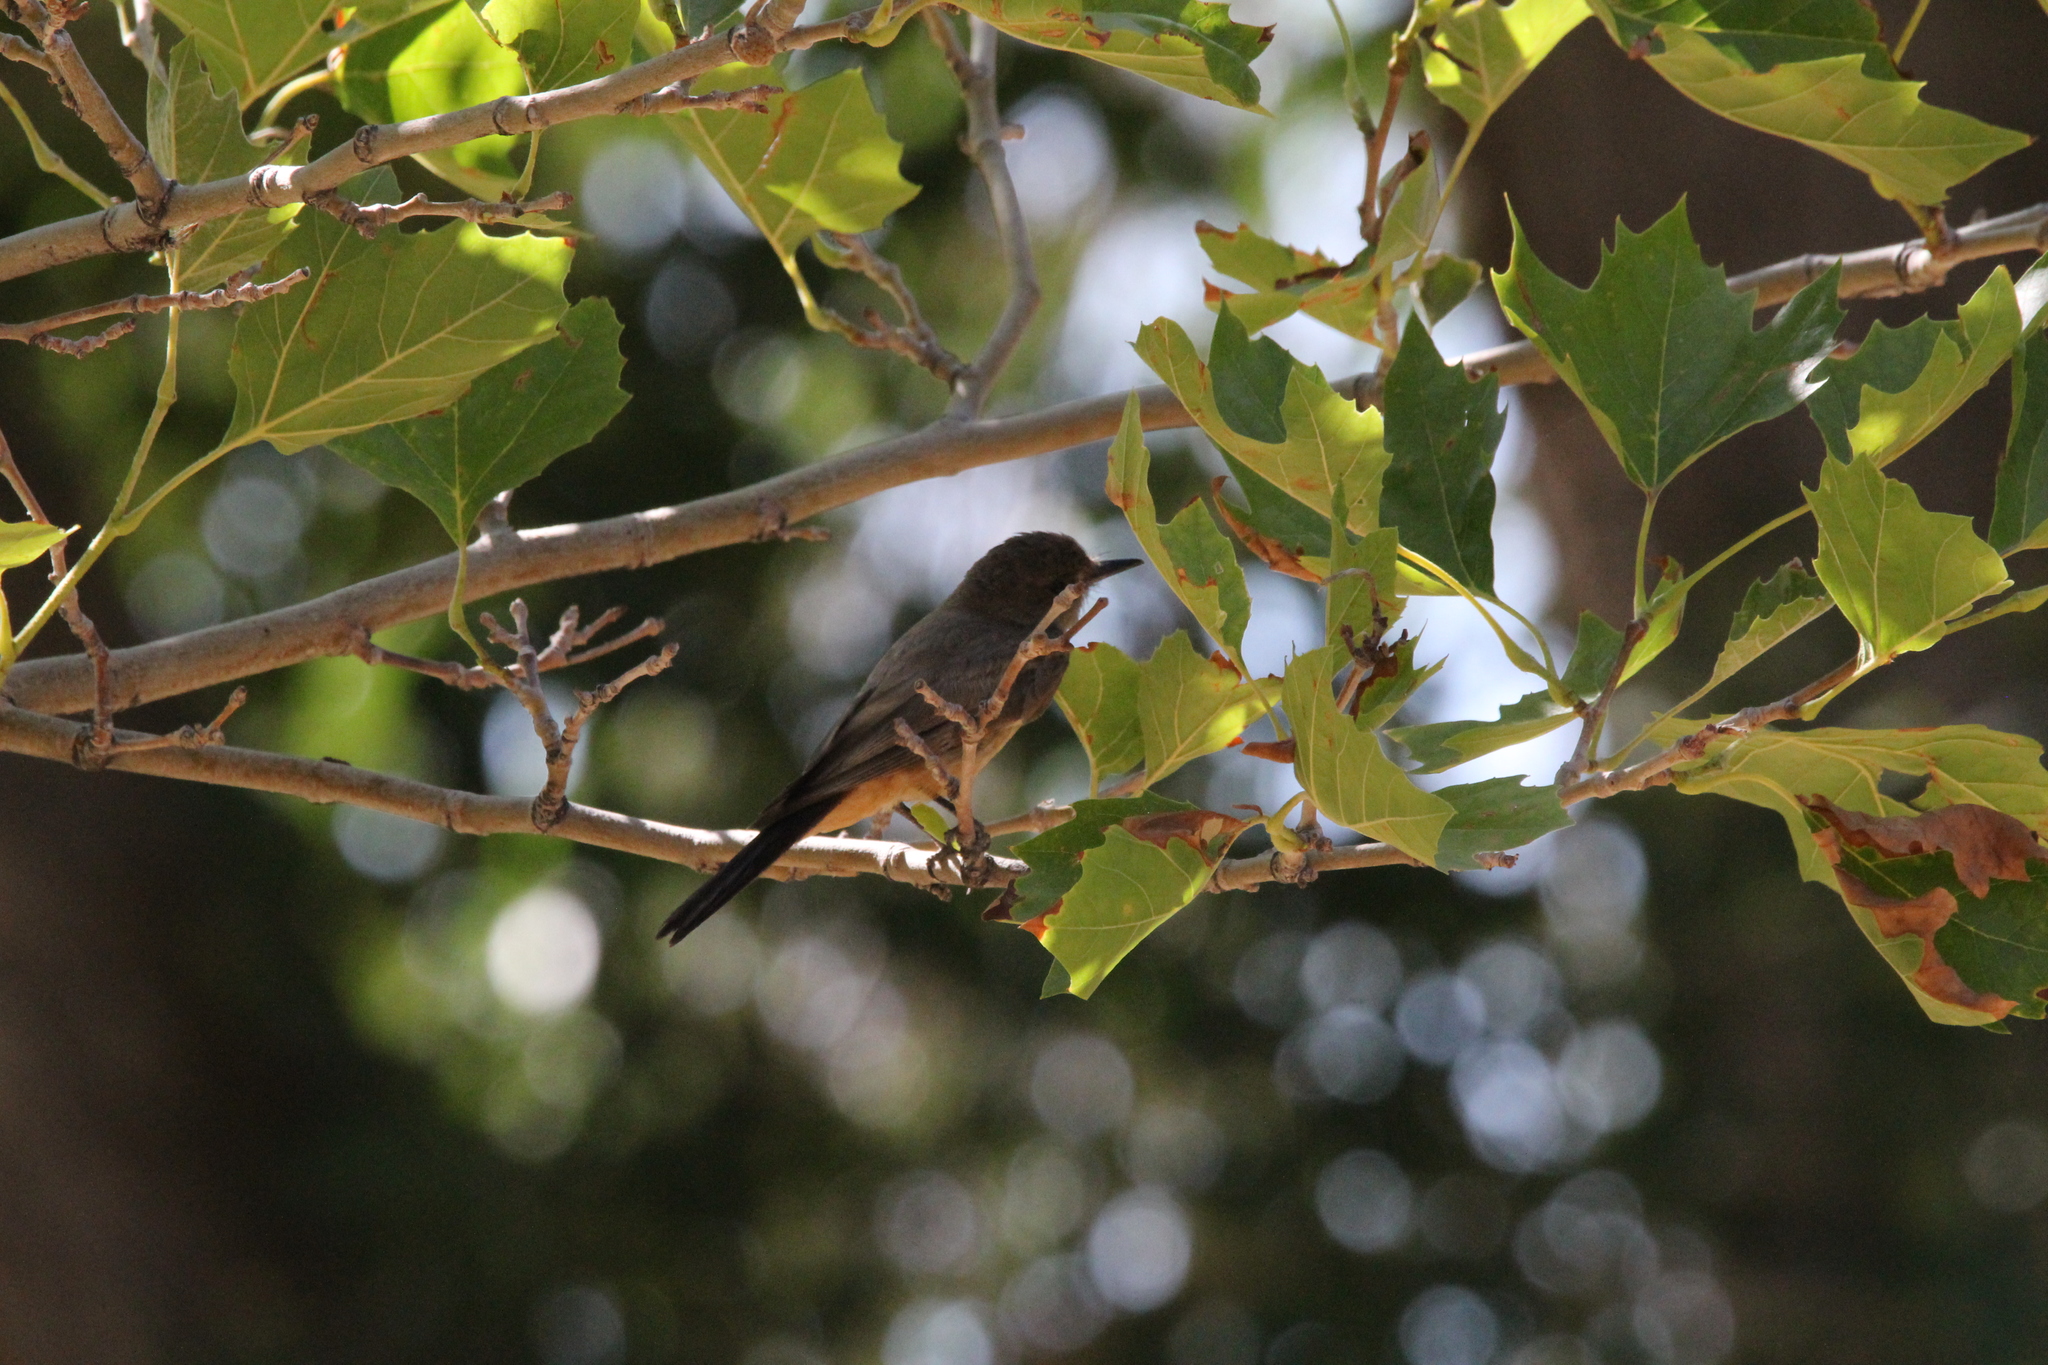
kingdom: Animalia
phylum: Chordata
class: Aves
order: Passeriformes
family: Tyrannidae
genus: Sayornis
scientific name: Sayornis saya
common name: Say's phoebe
